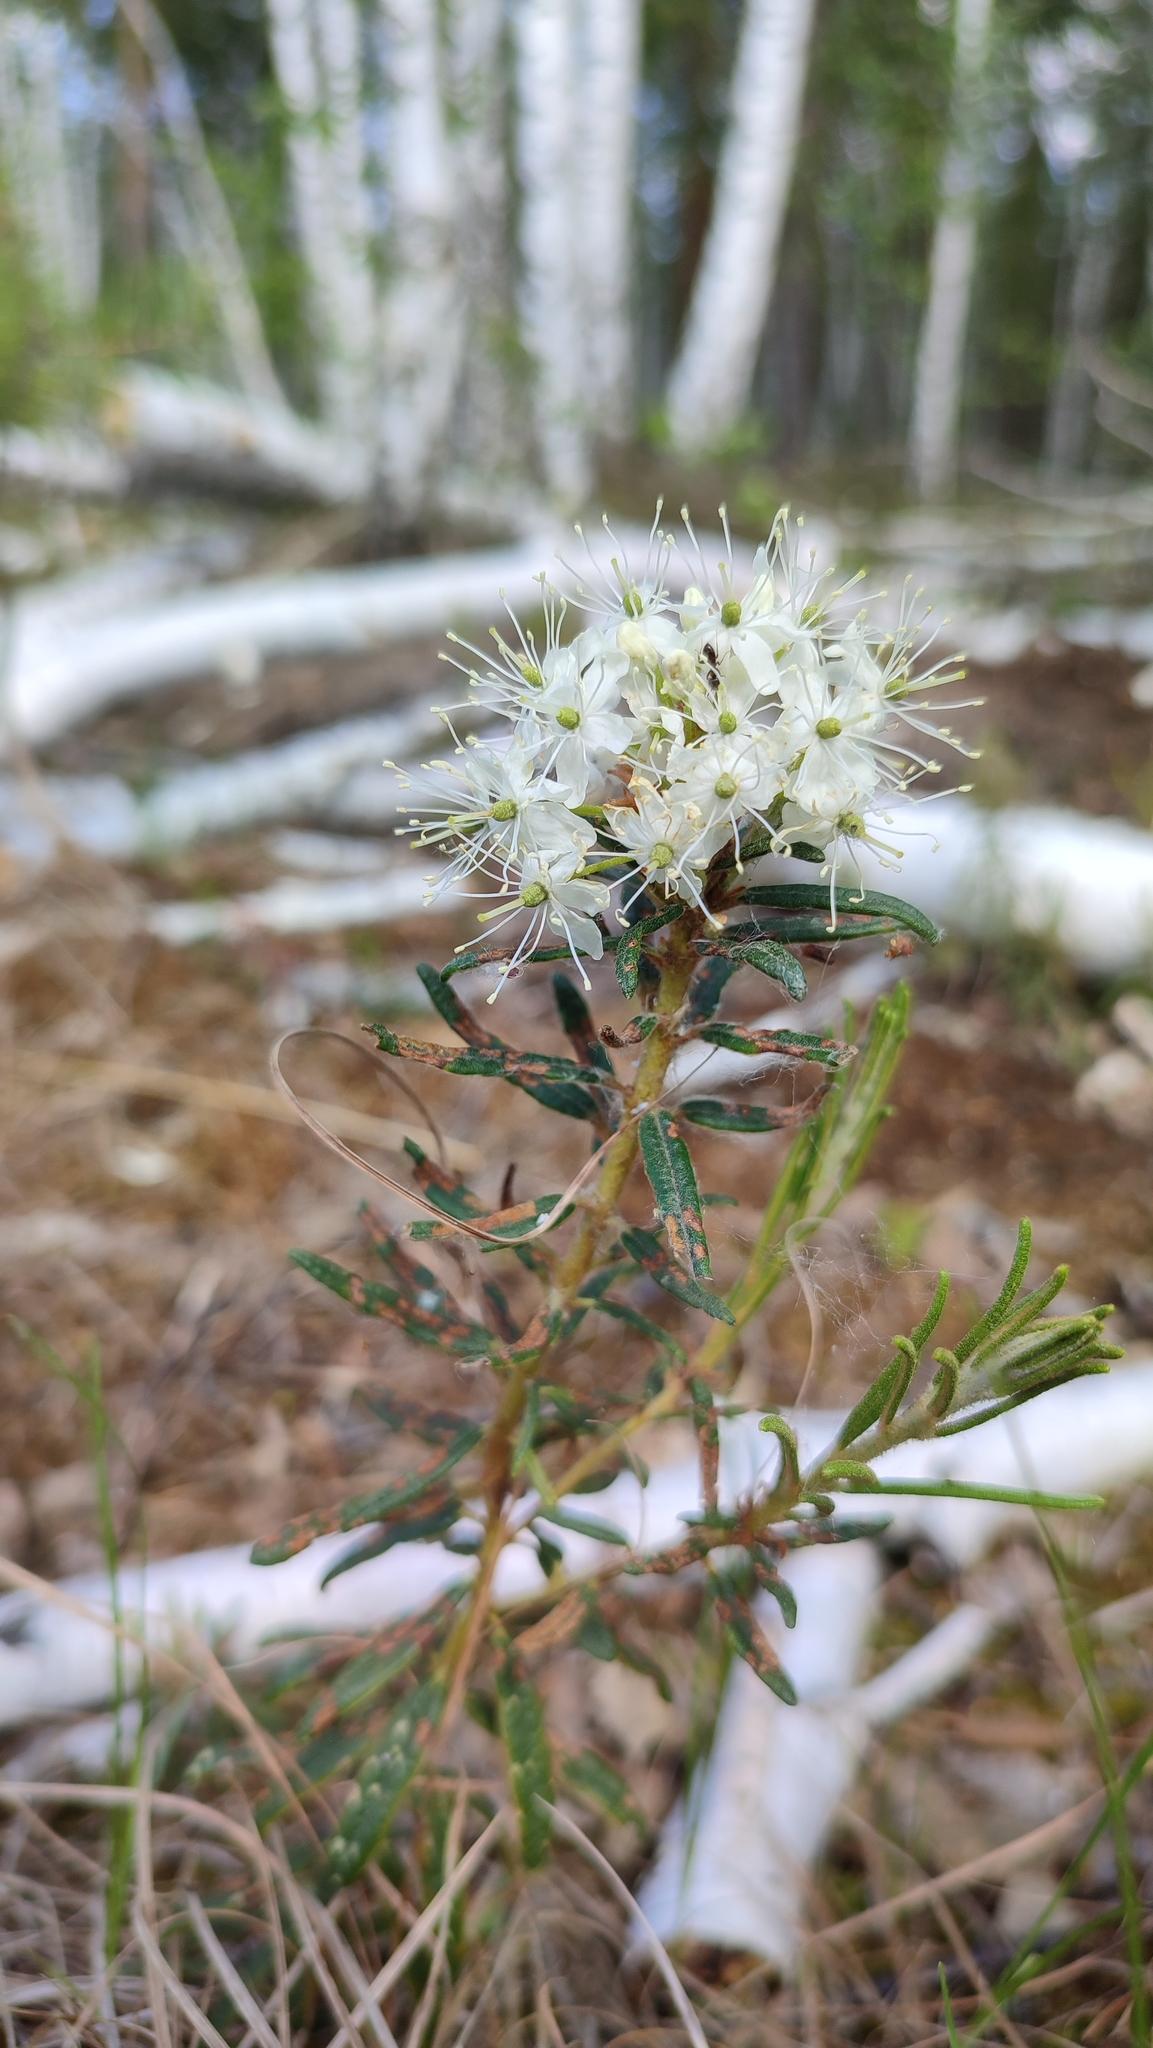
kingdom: Plantae
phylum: Tracheophyta
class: Magnoliopsida
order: Ericales
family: Ericaceae
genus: Rhododendron
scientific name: Rhododendron tomentosum
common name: Marsh labrador tea
